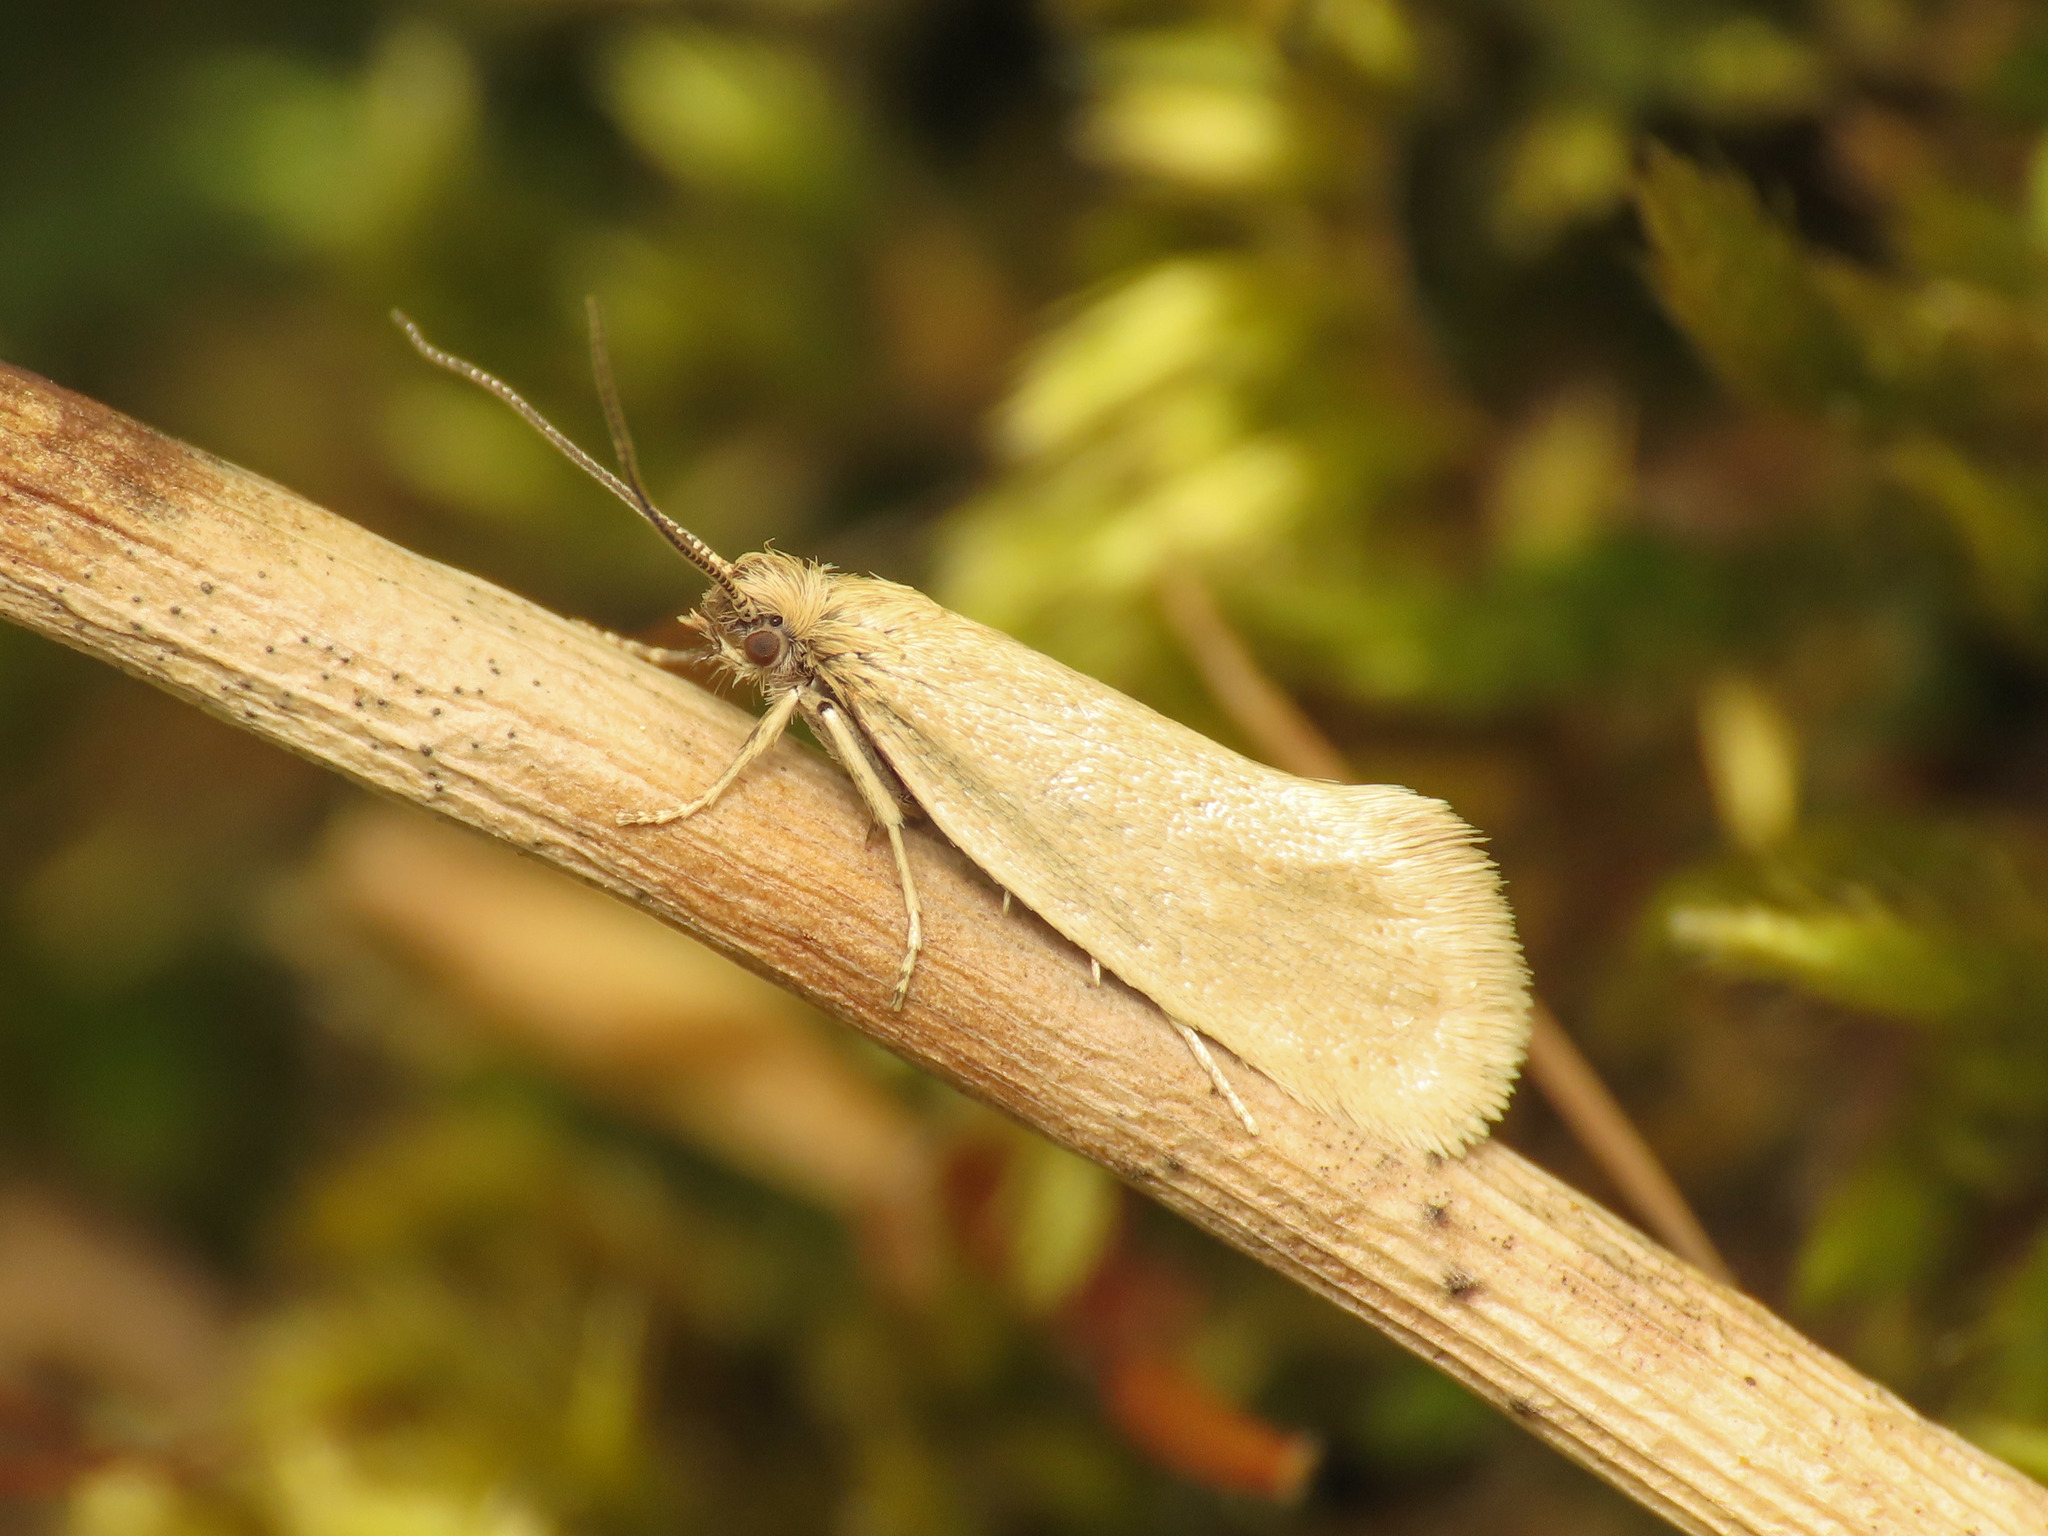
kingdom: Animalia
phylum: Arthropoda
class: Insecta
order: Lepidoptera
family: Eriocottidae
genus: Eriocottis
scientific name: Eriocottis fuscanella
